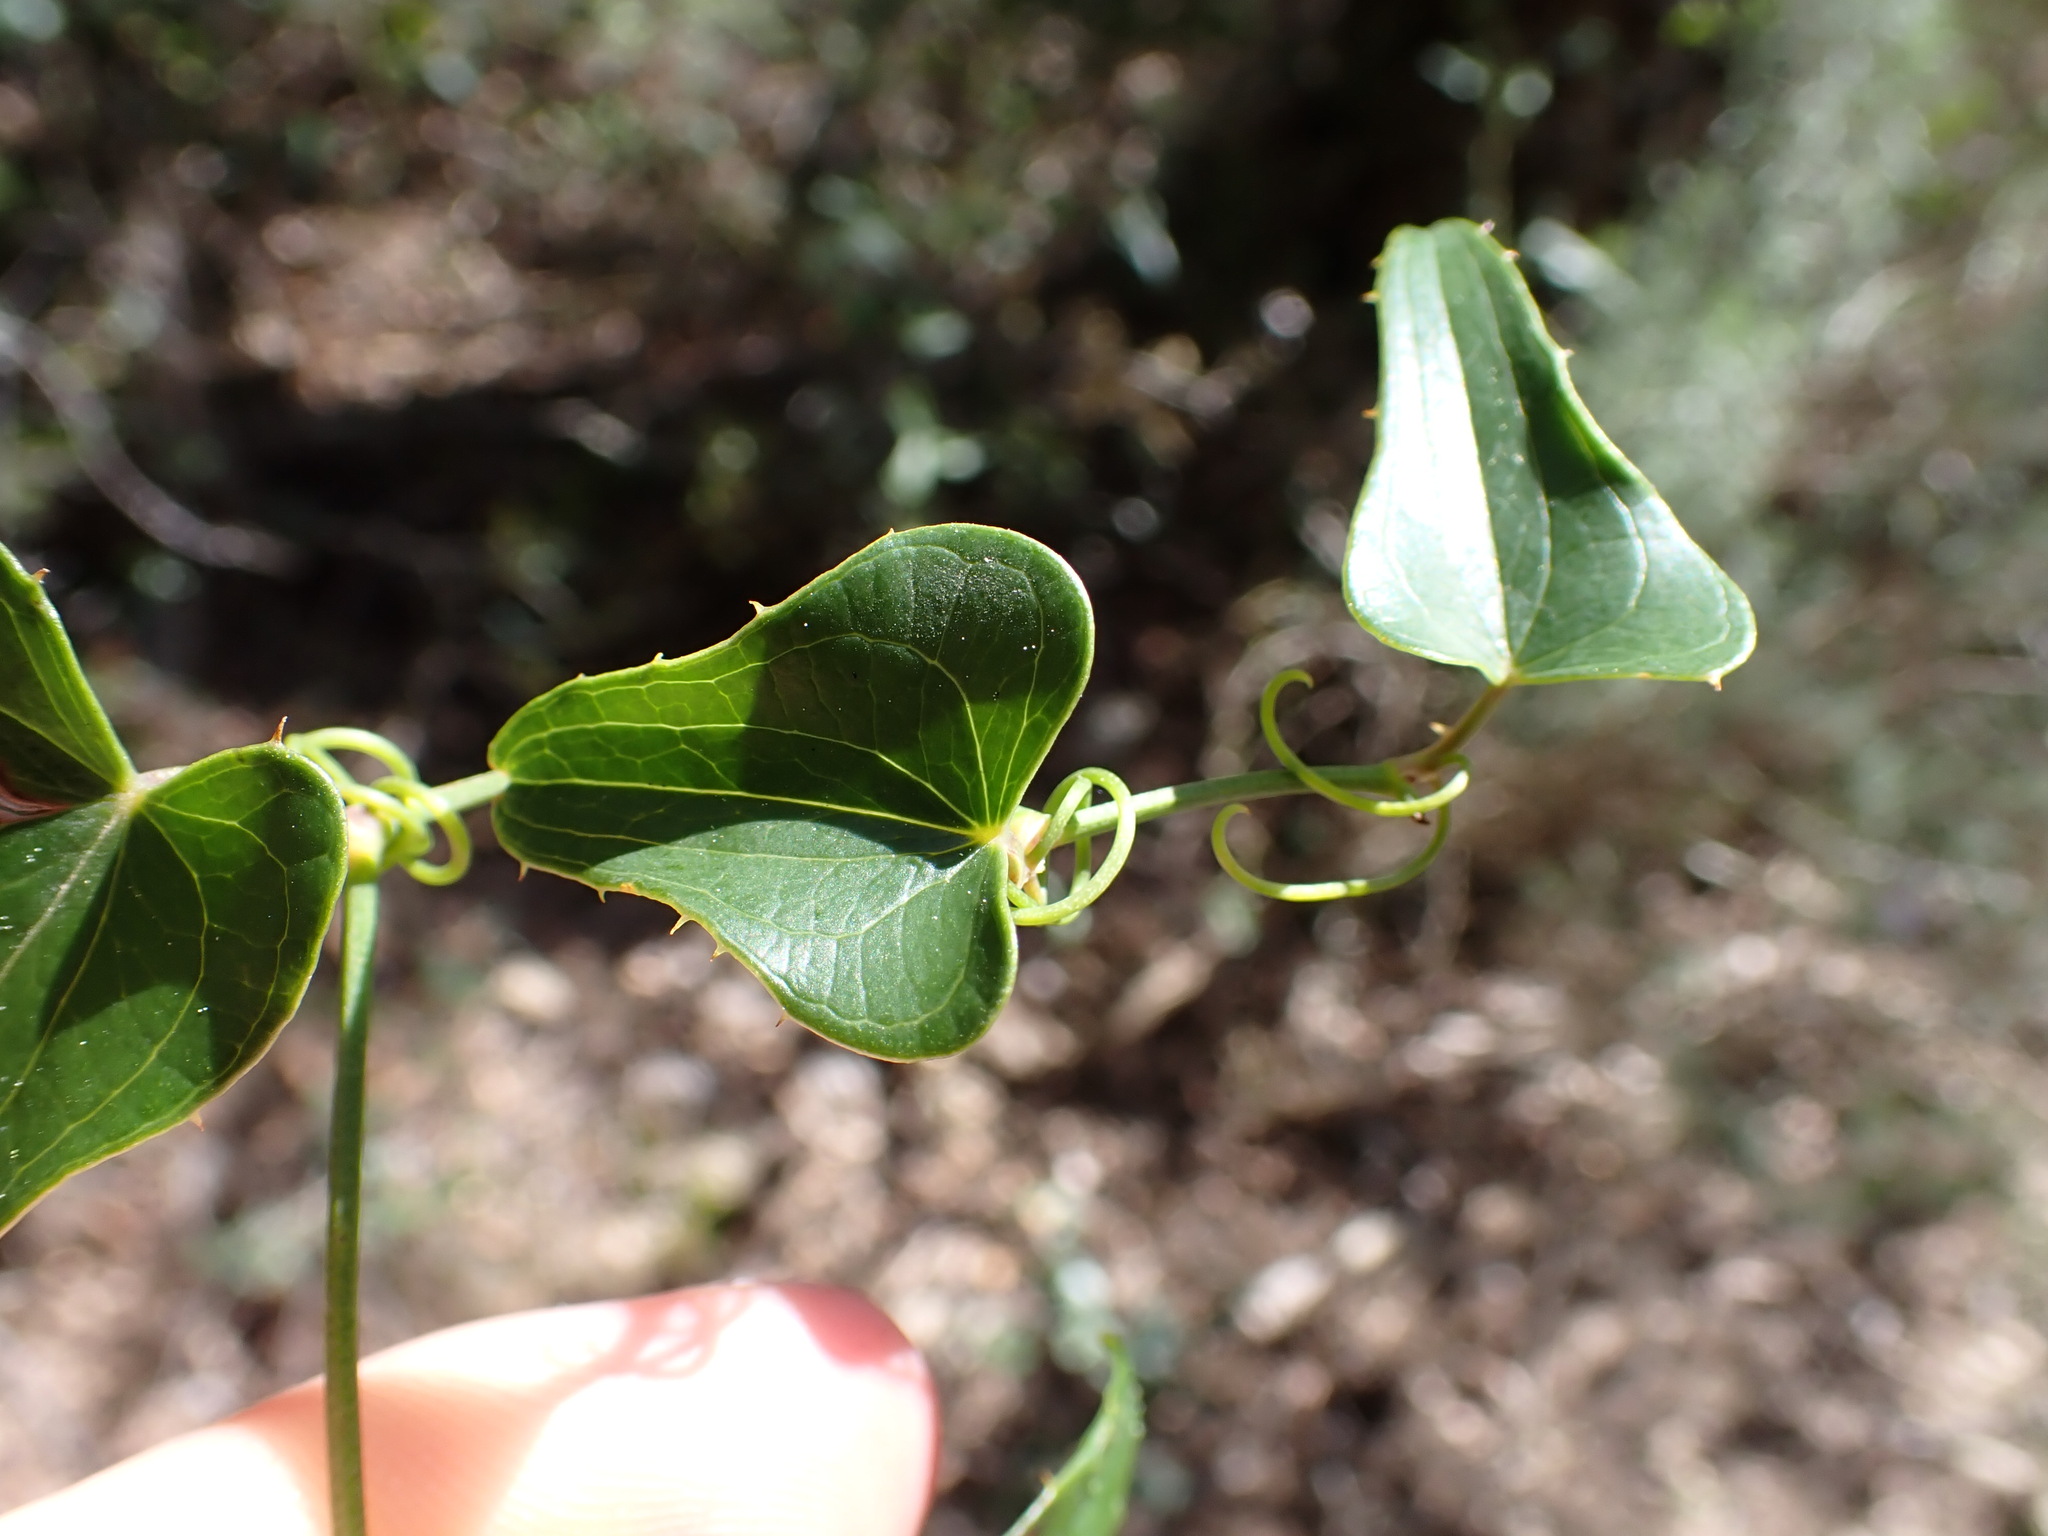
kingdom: Plantae
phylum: Tracheophyta
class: Liliopsida
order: Liliales
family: Smilacaceae
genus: Smilax
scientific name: Smilax aspera
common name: Common smilax
